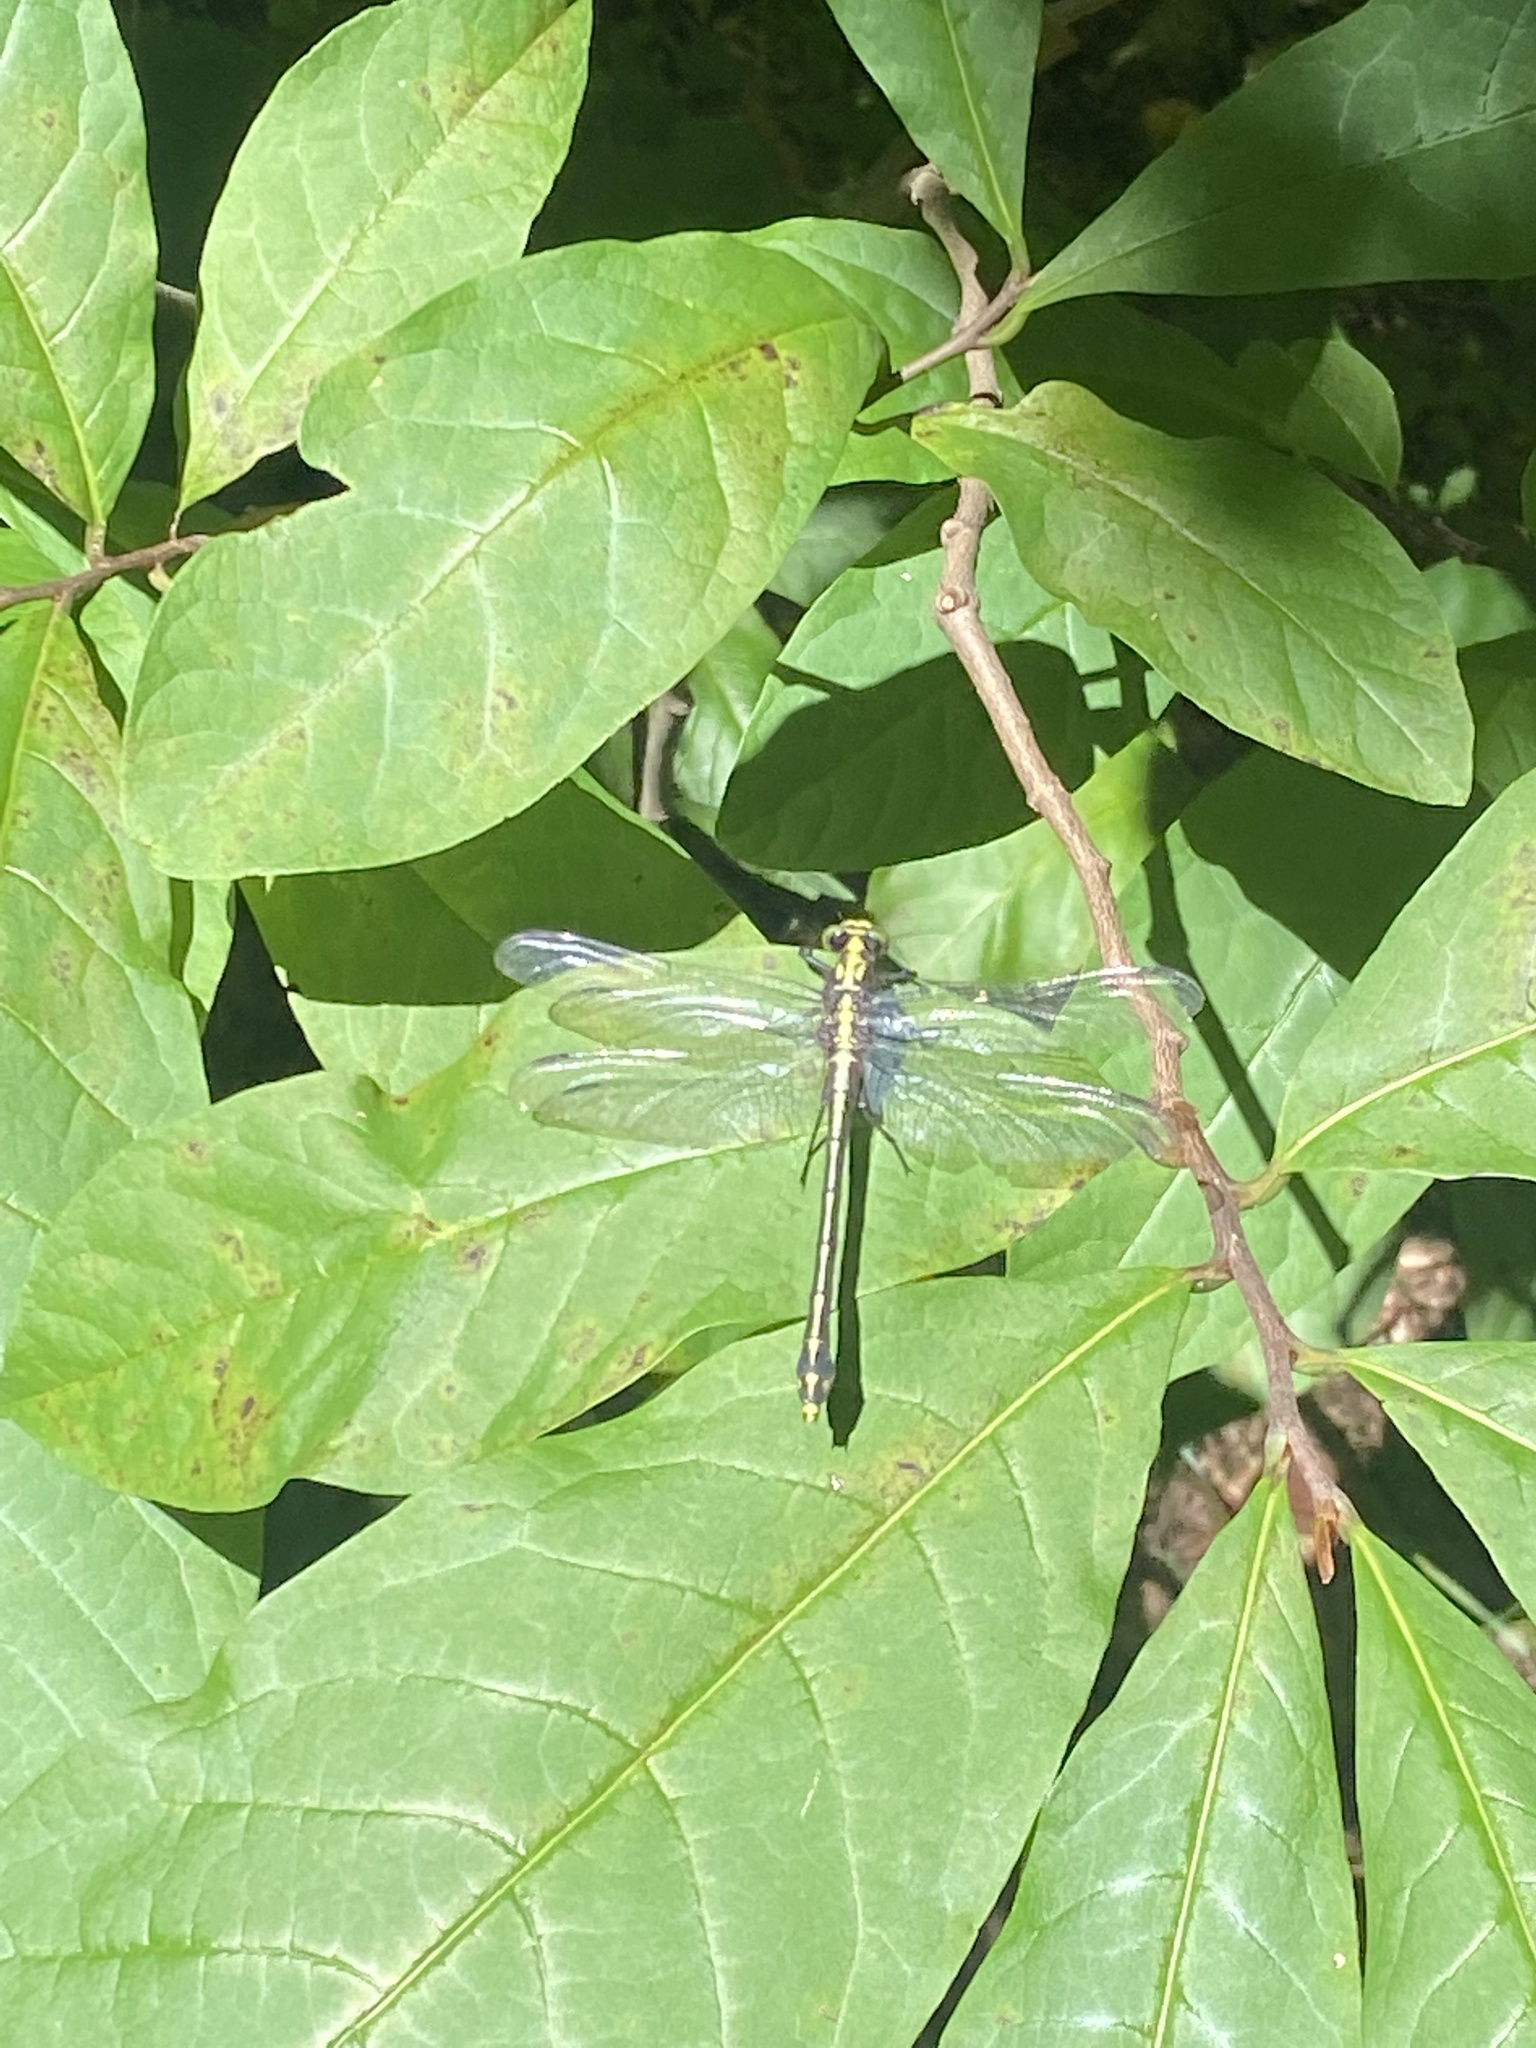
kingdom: Animalia
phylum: Arthropoda
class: Insecta
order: Odonata
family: Gomphidae
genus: Dromogomphus
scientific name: Dromogomphus spinosus
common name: Black-shouldered spinyleg
